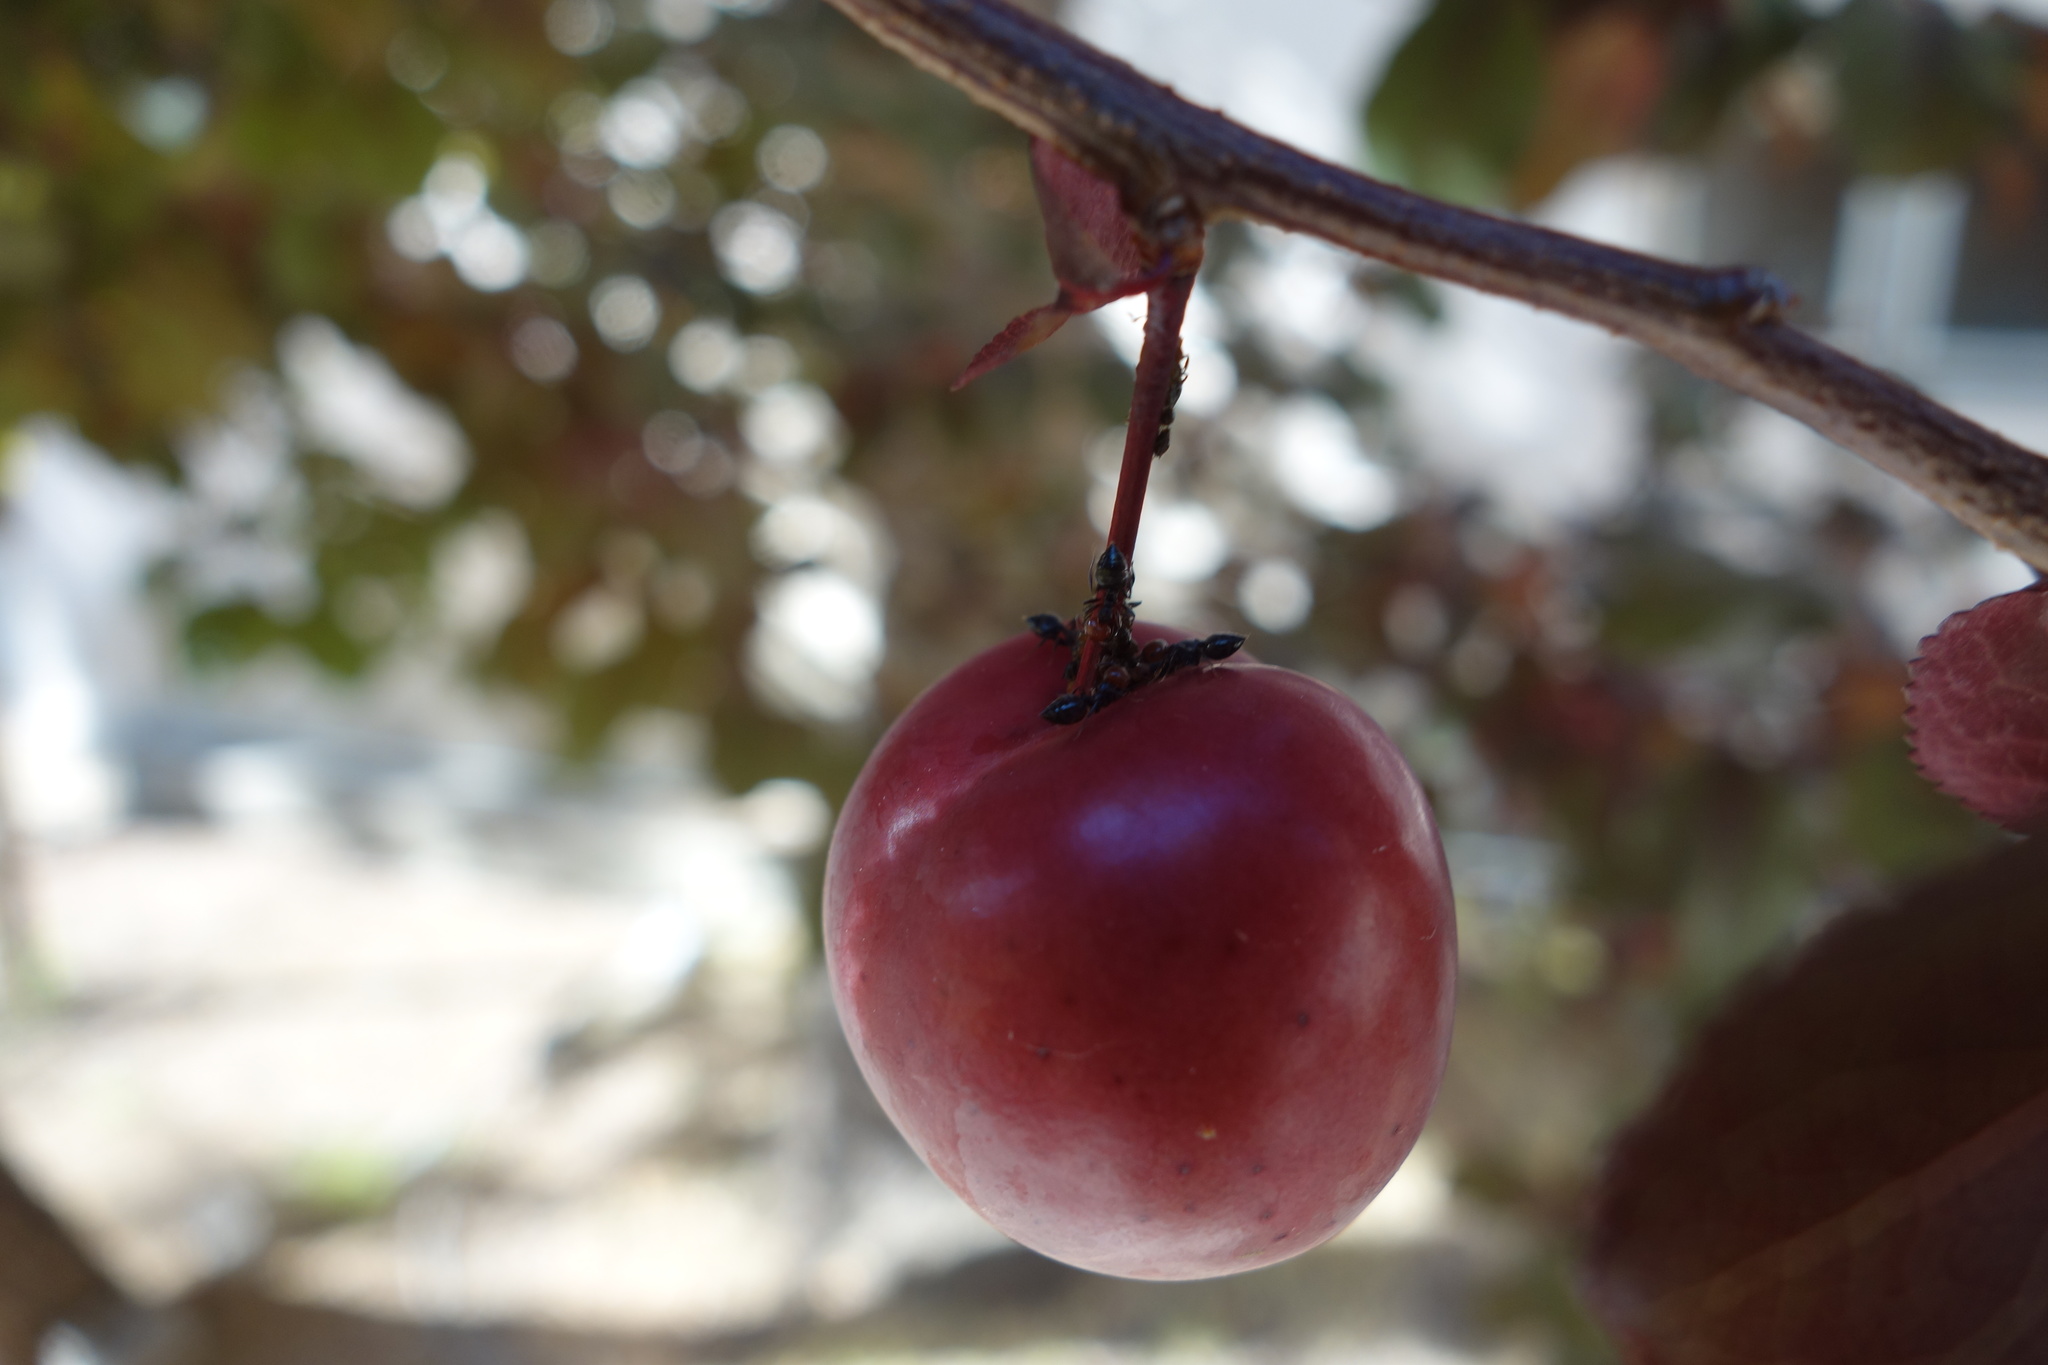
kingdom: Animalia
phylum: Arthropoda
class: Insecta
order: Hymenoptera
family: Formicidae
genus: Crematogaster
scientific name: Crematogaster scutellaris
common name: Fourmi du liège
